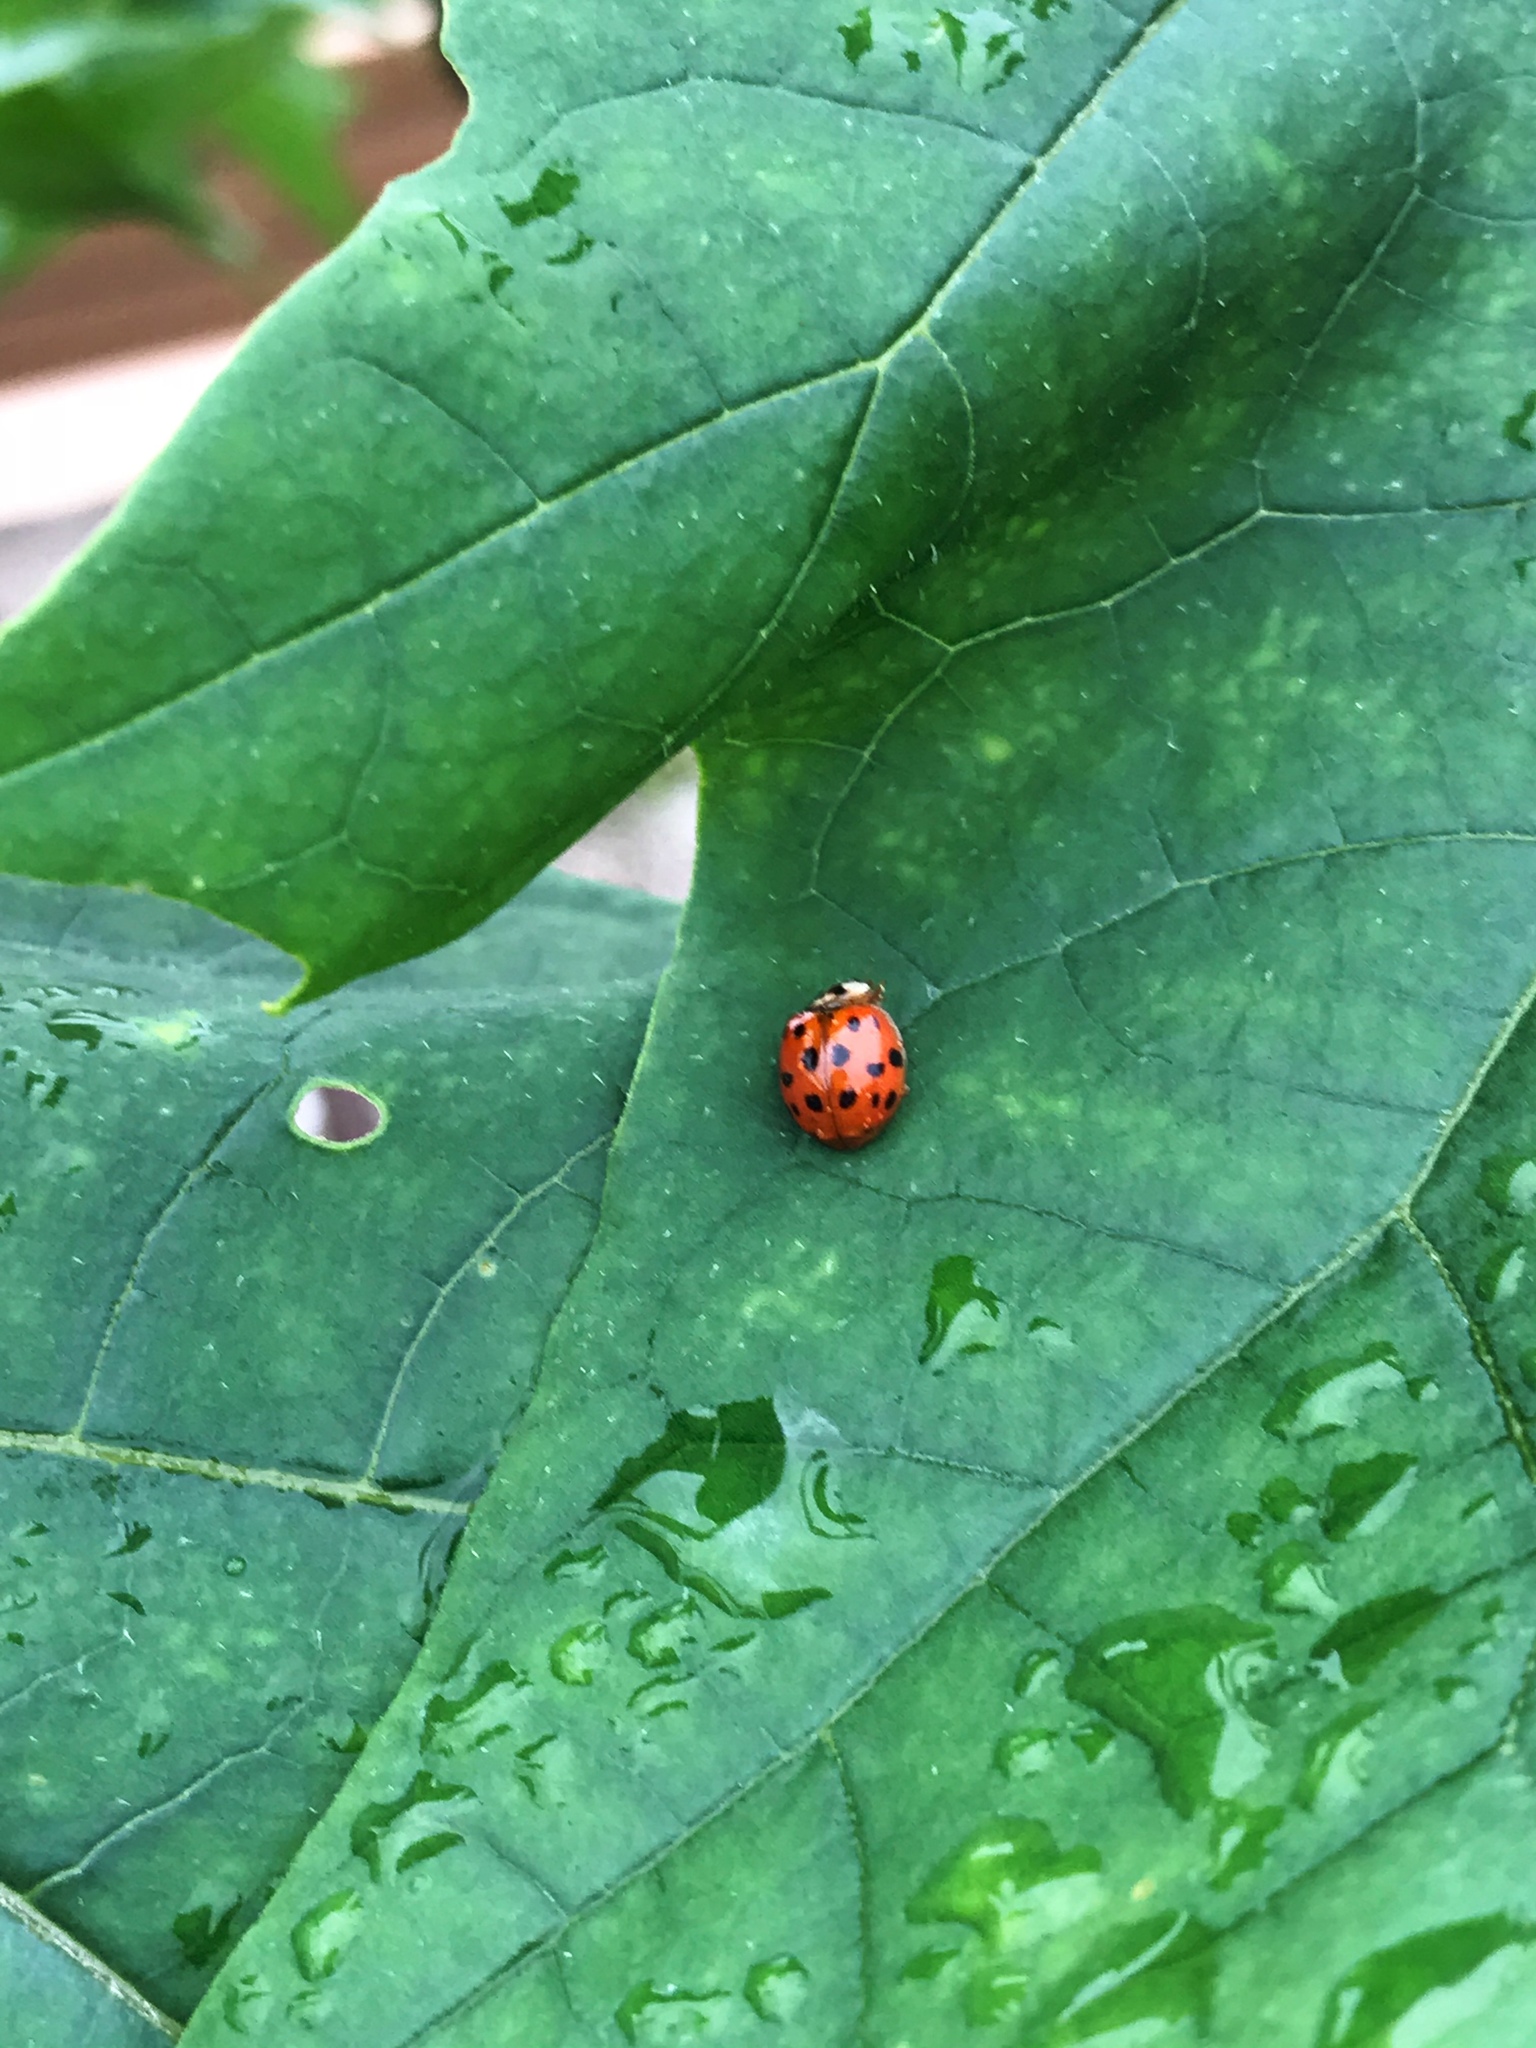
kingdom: Animalia
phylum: Arthropoda
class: Insecta
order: Coleoptera
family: Coccinellidae
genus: Harmonia
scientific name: Harmonia axyridis
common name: Harlequin ladybird
